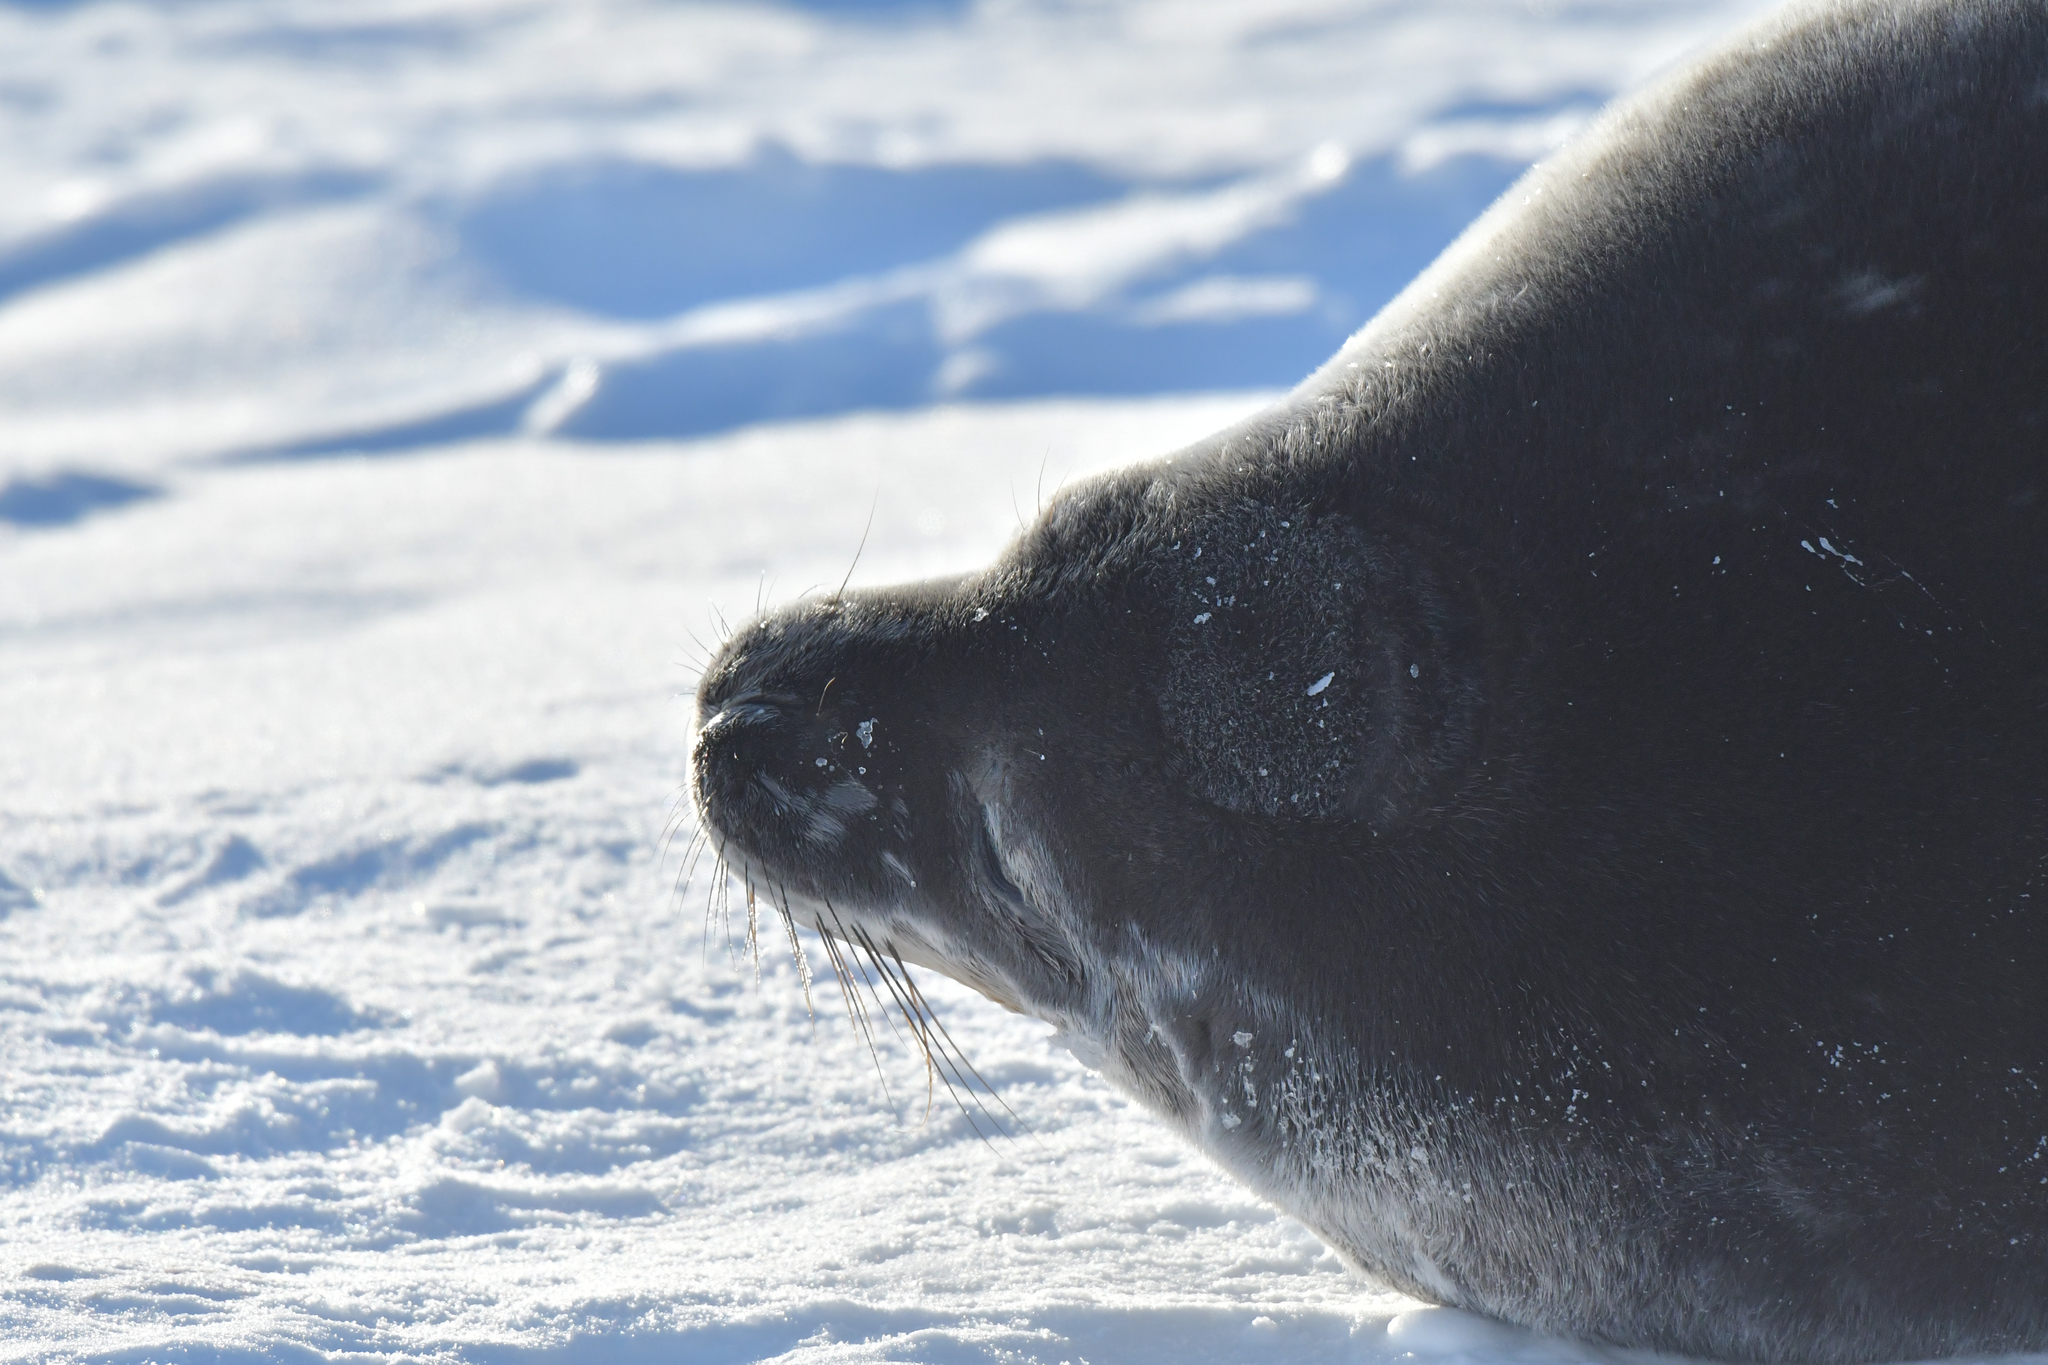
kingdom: Animalia
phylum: Chordata
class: Mammalia
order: Carnivora
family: Phocidae
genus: Leptonychotes
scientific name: Leptonychotes weddellii
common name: Weddell seal
